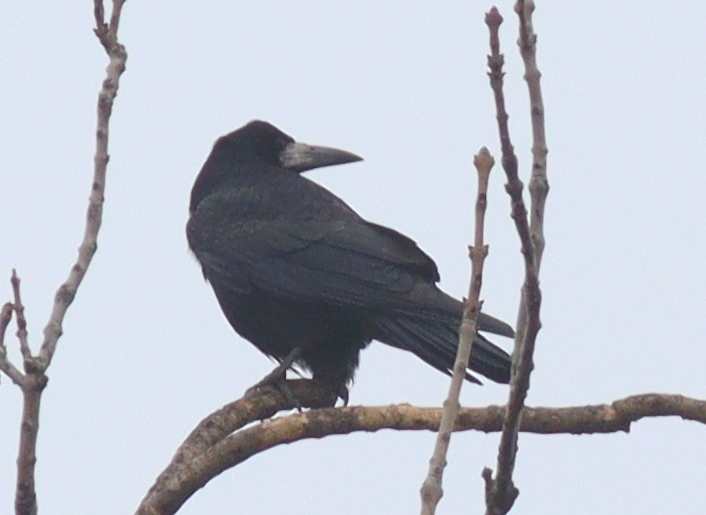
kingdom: Animalia
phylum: Chordata
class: Aves
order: Passeriformes
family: Corvidae
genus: Corvus
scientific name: Corvus frugilegus
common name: Rook
